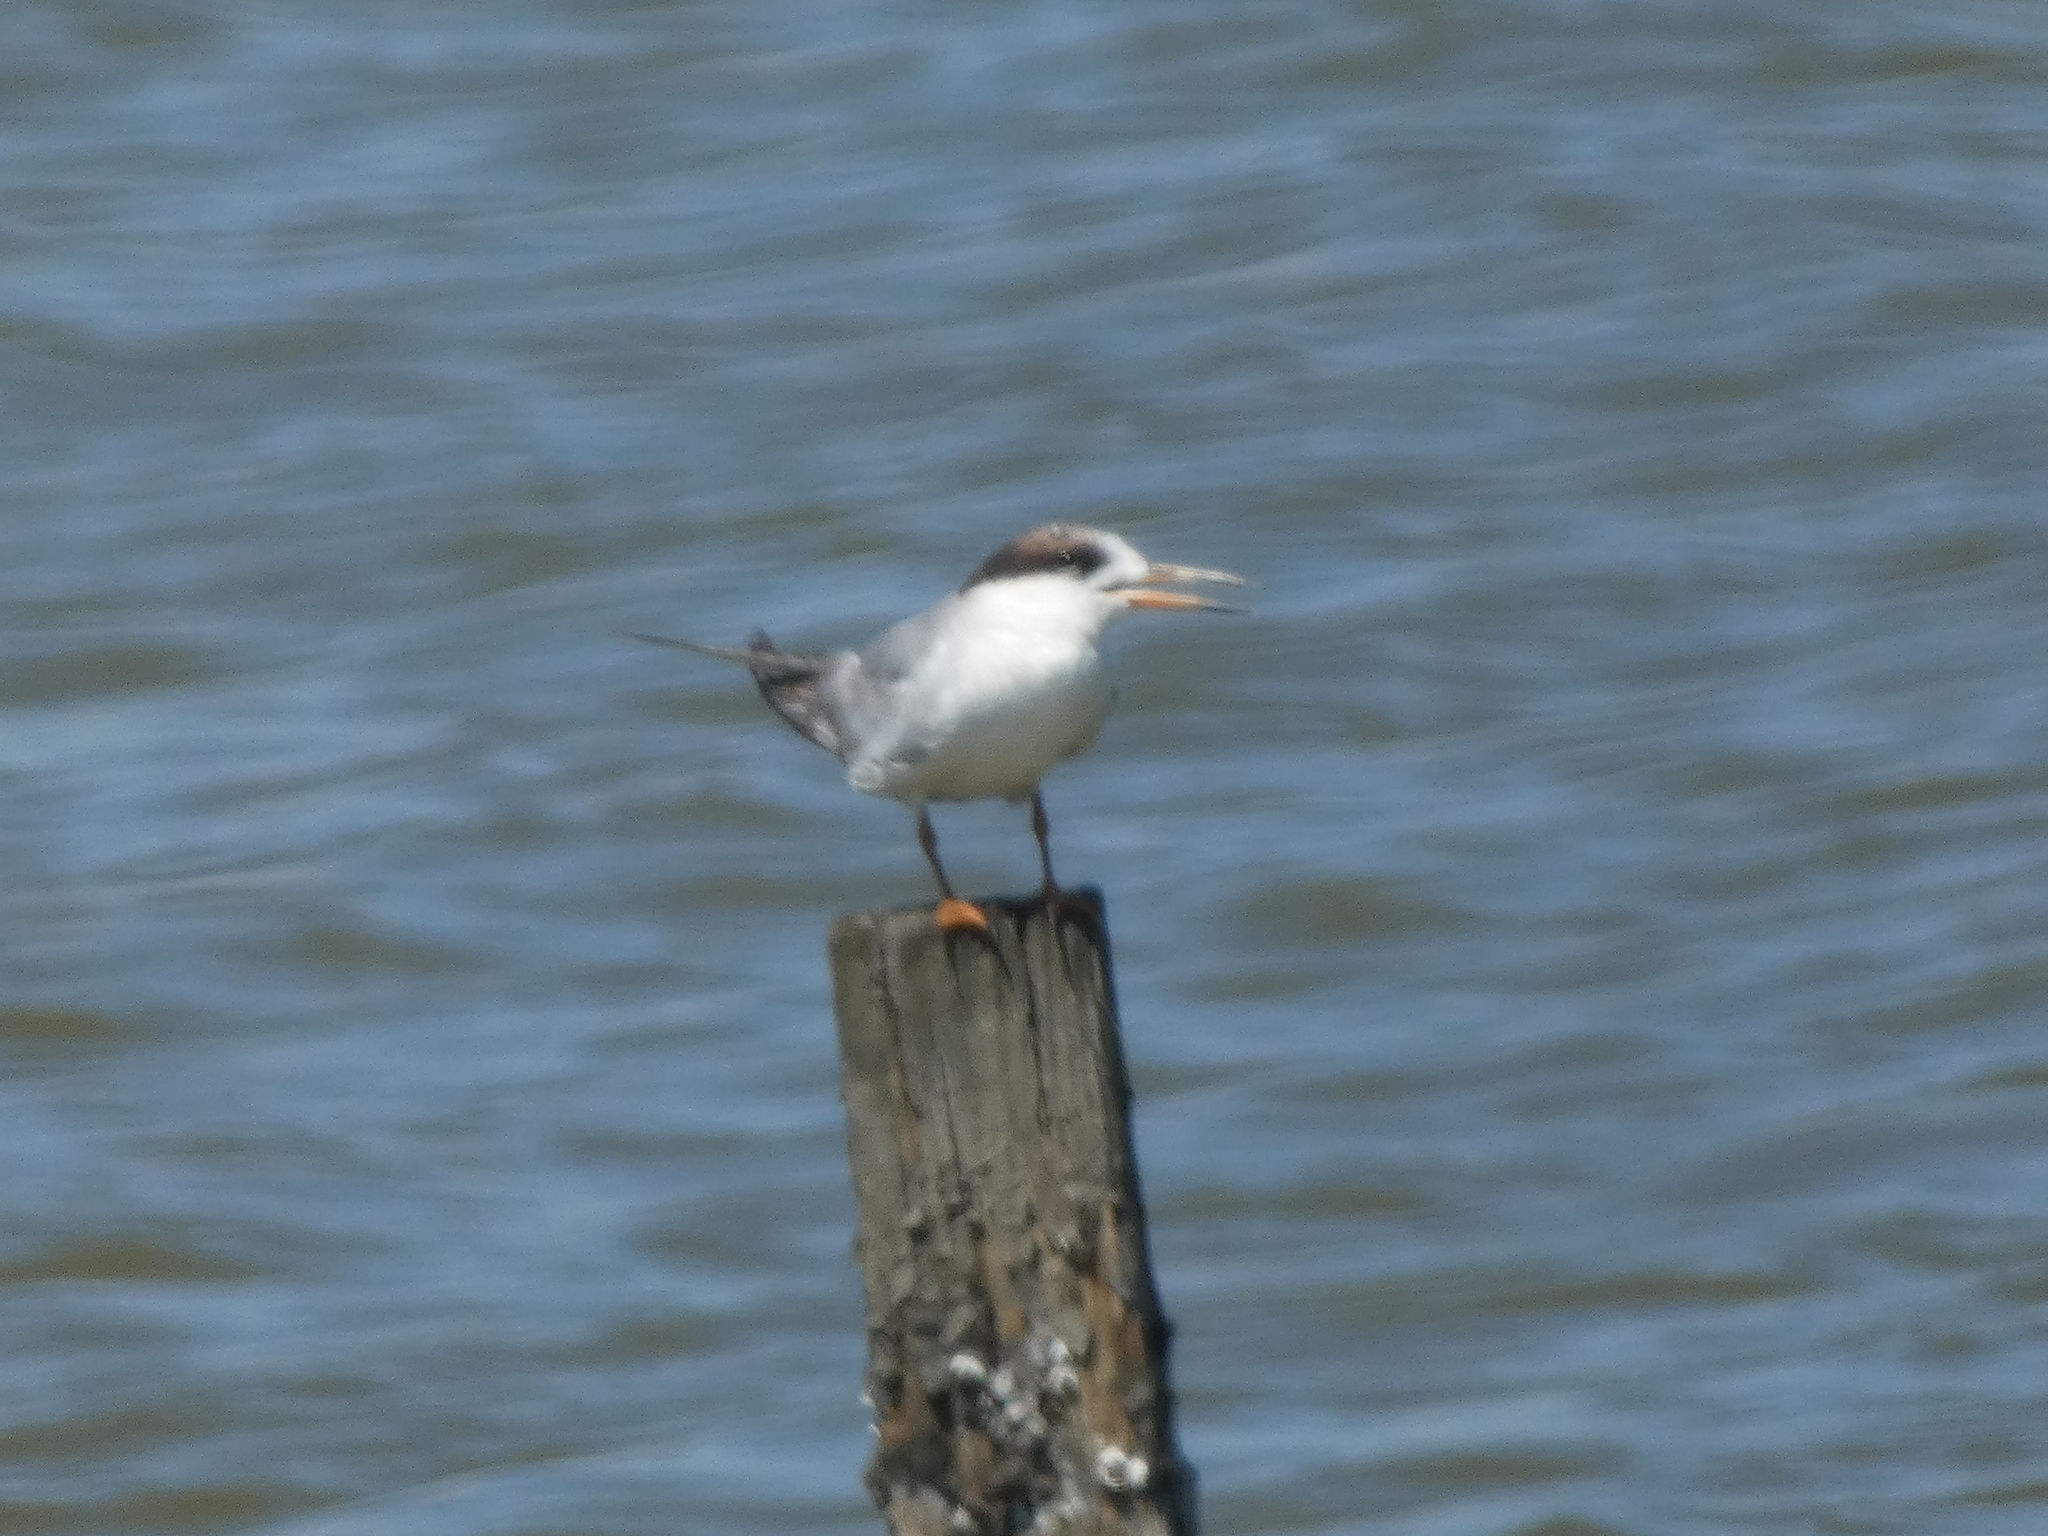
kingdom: Animalia
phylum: Chordata
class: Aves
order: Charadriiformes
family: Laridae
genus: Sterna
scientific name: Sterna forsteri
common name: Forster's tern
